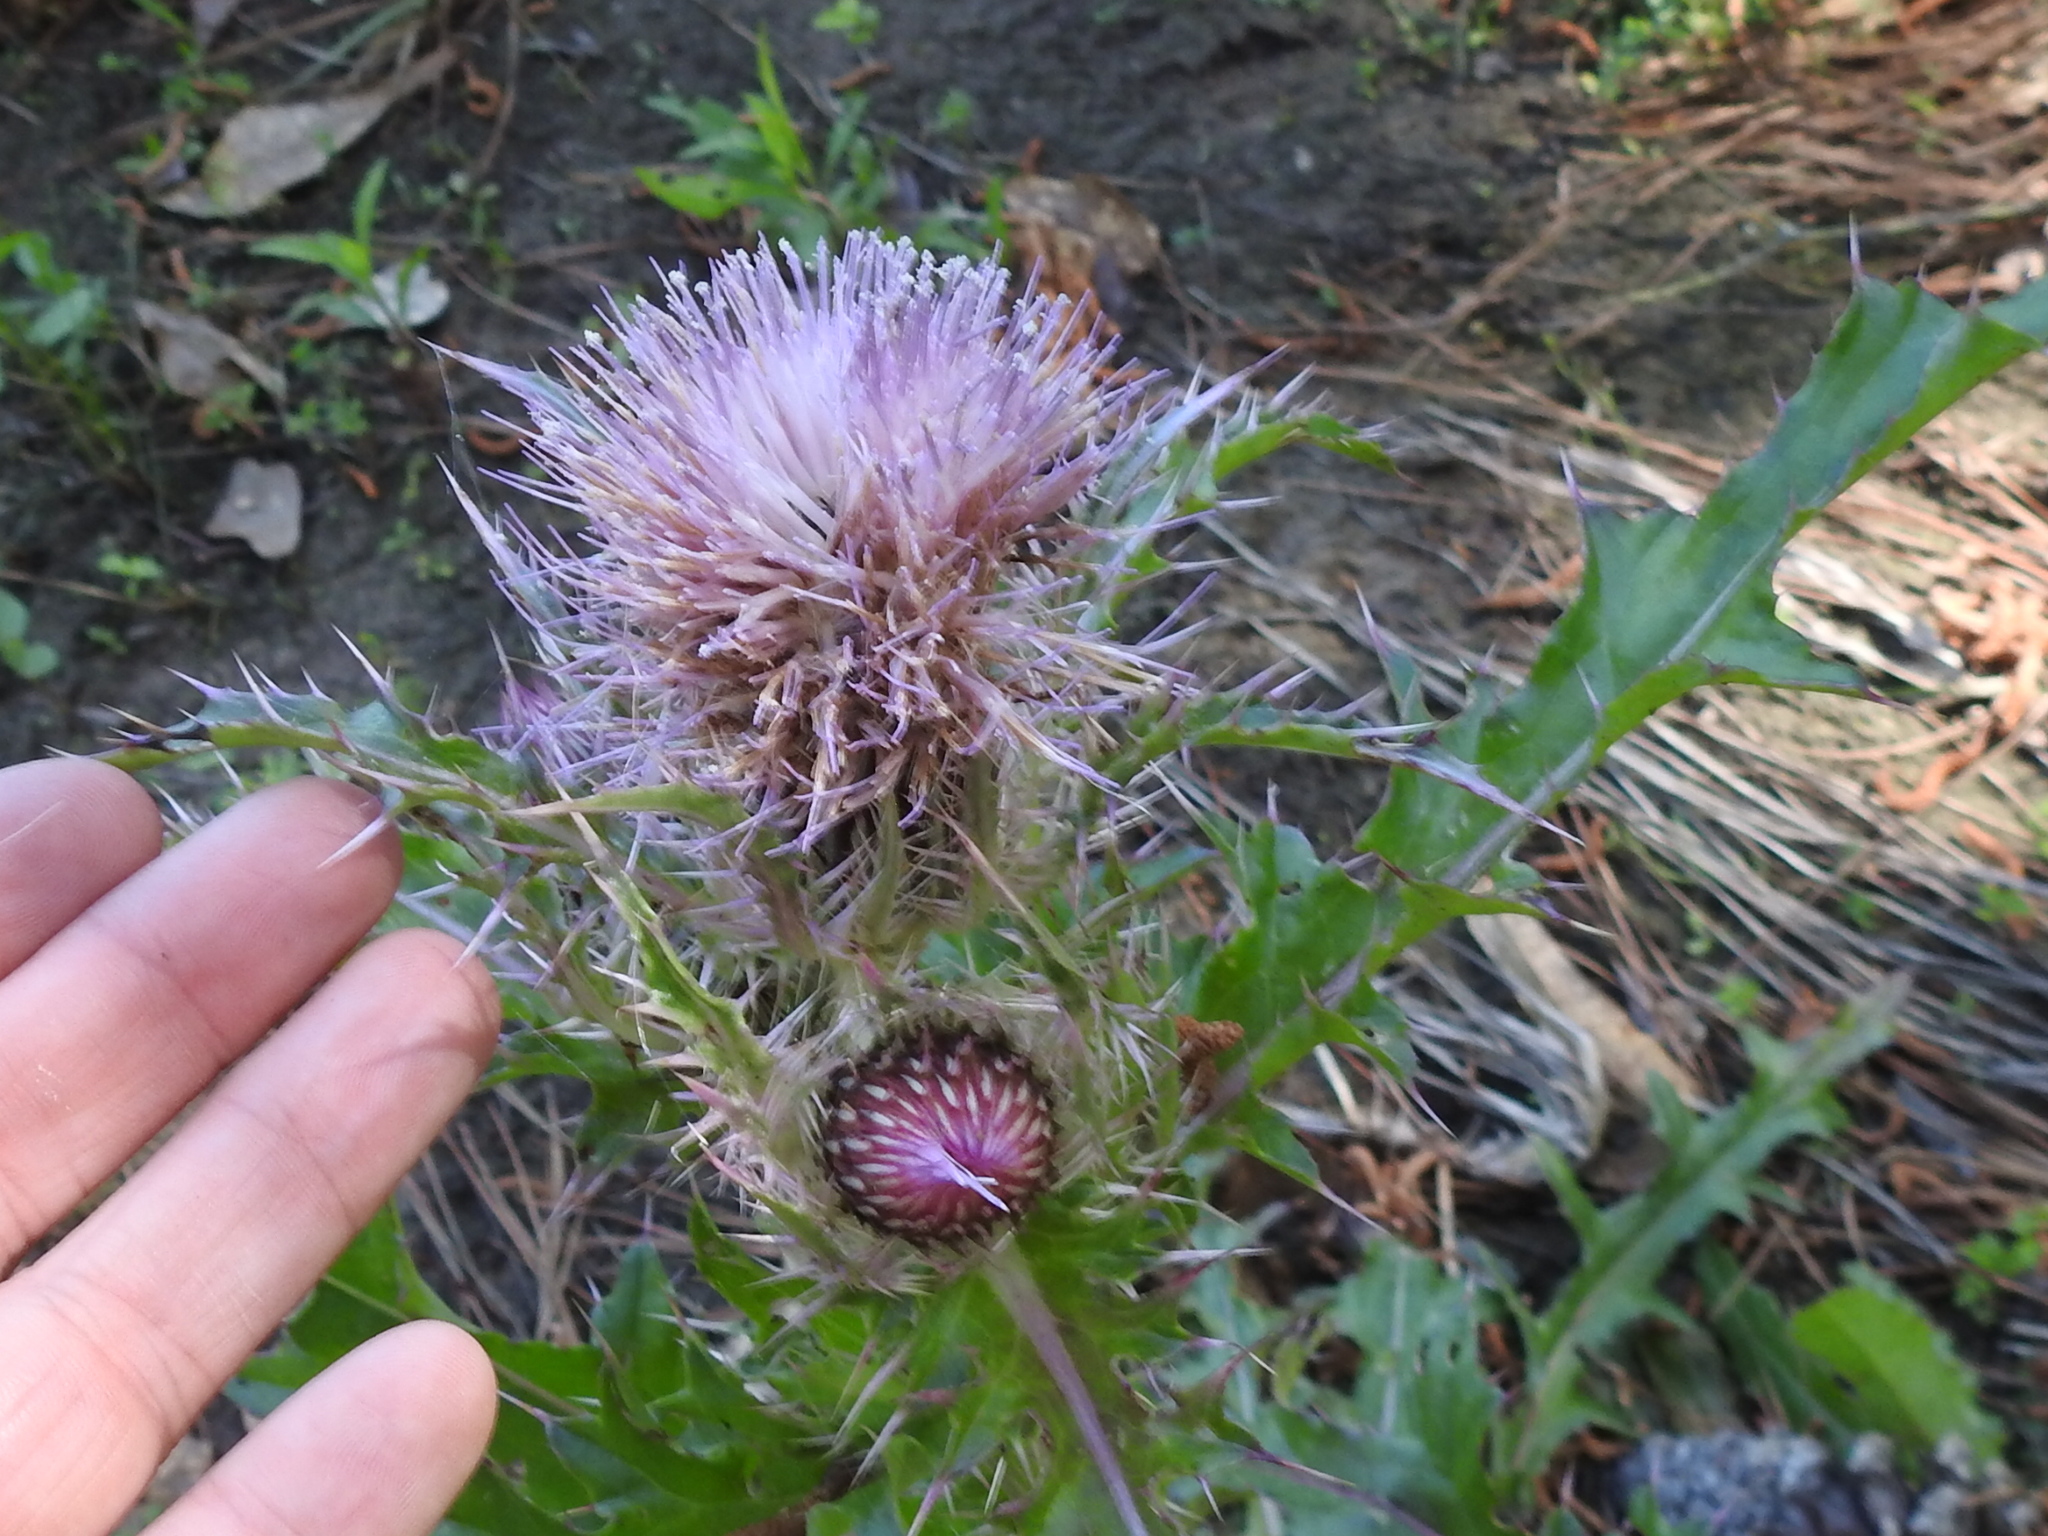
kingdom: Plantae
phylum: Tracheophyta
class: Magnoliopsida
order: Asterales
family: Asteraceae
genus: Cirsium
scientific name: Cirsium horridulum
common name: Bristly thistle
